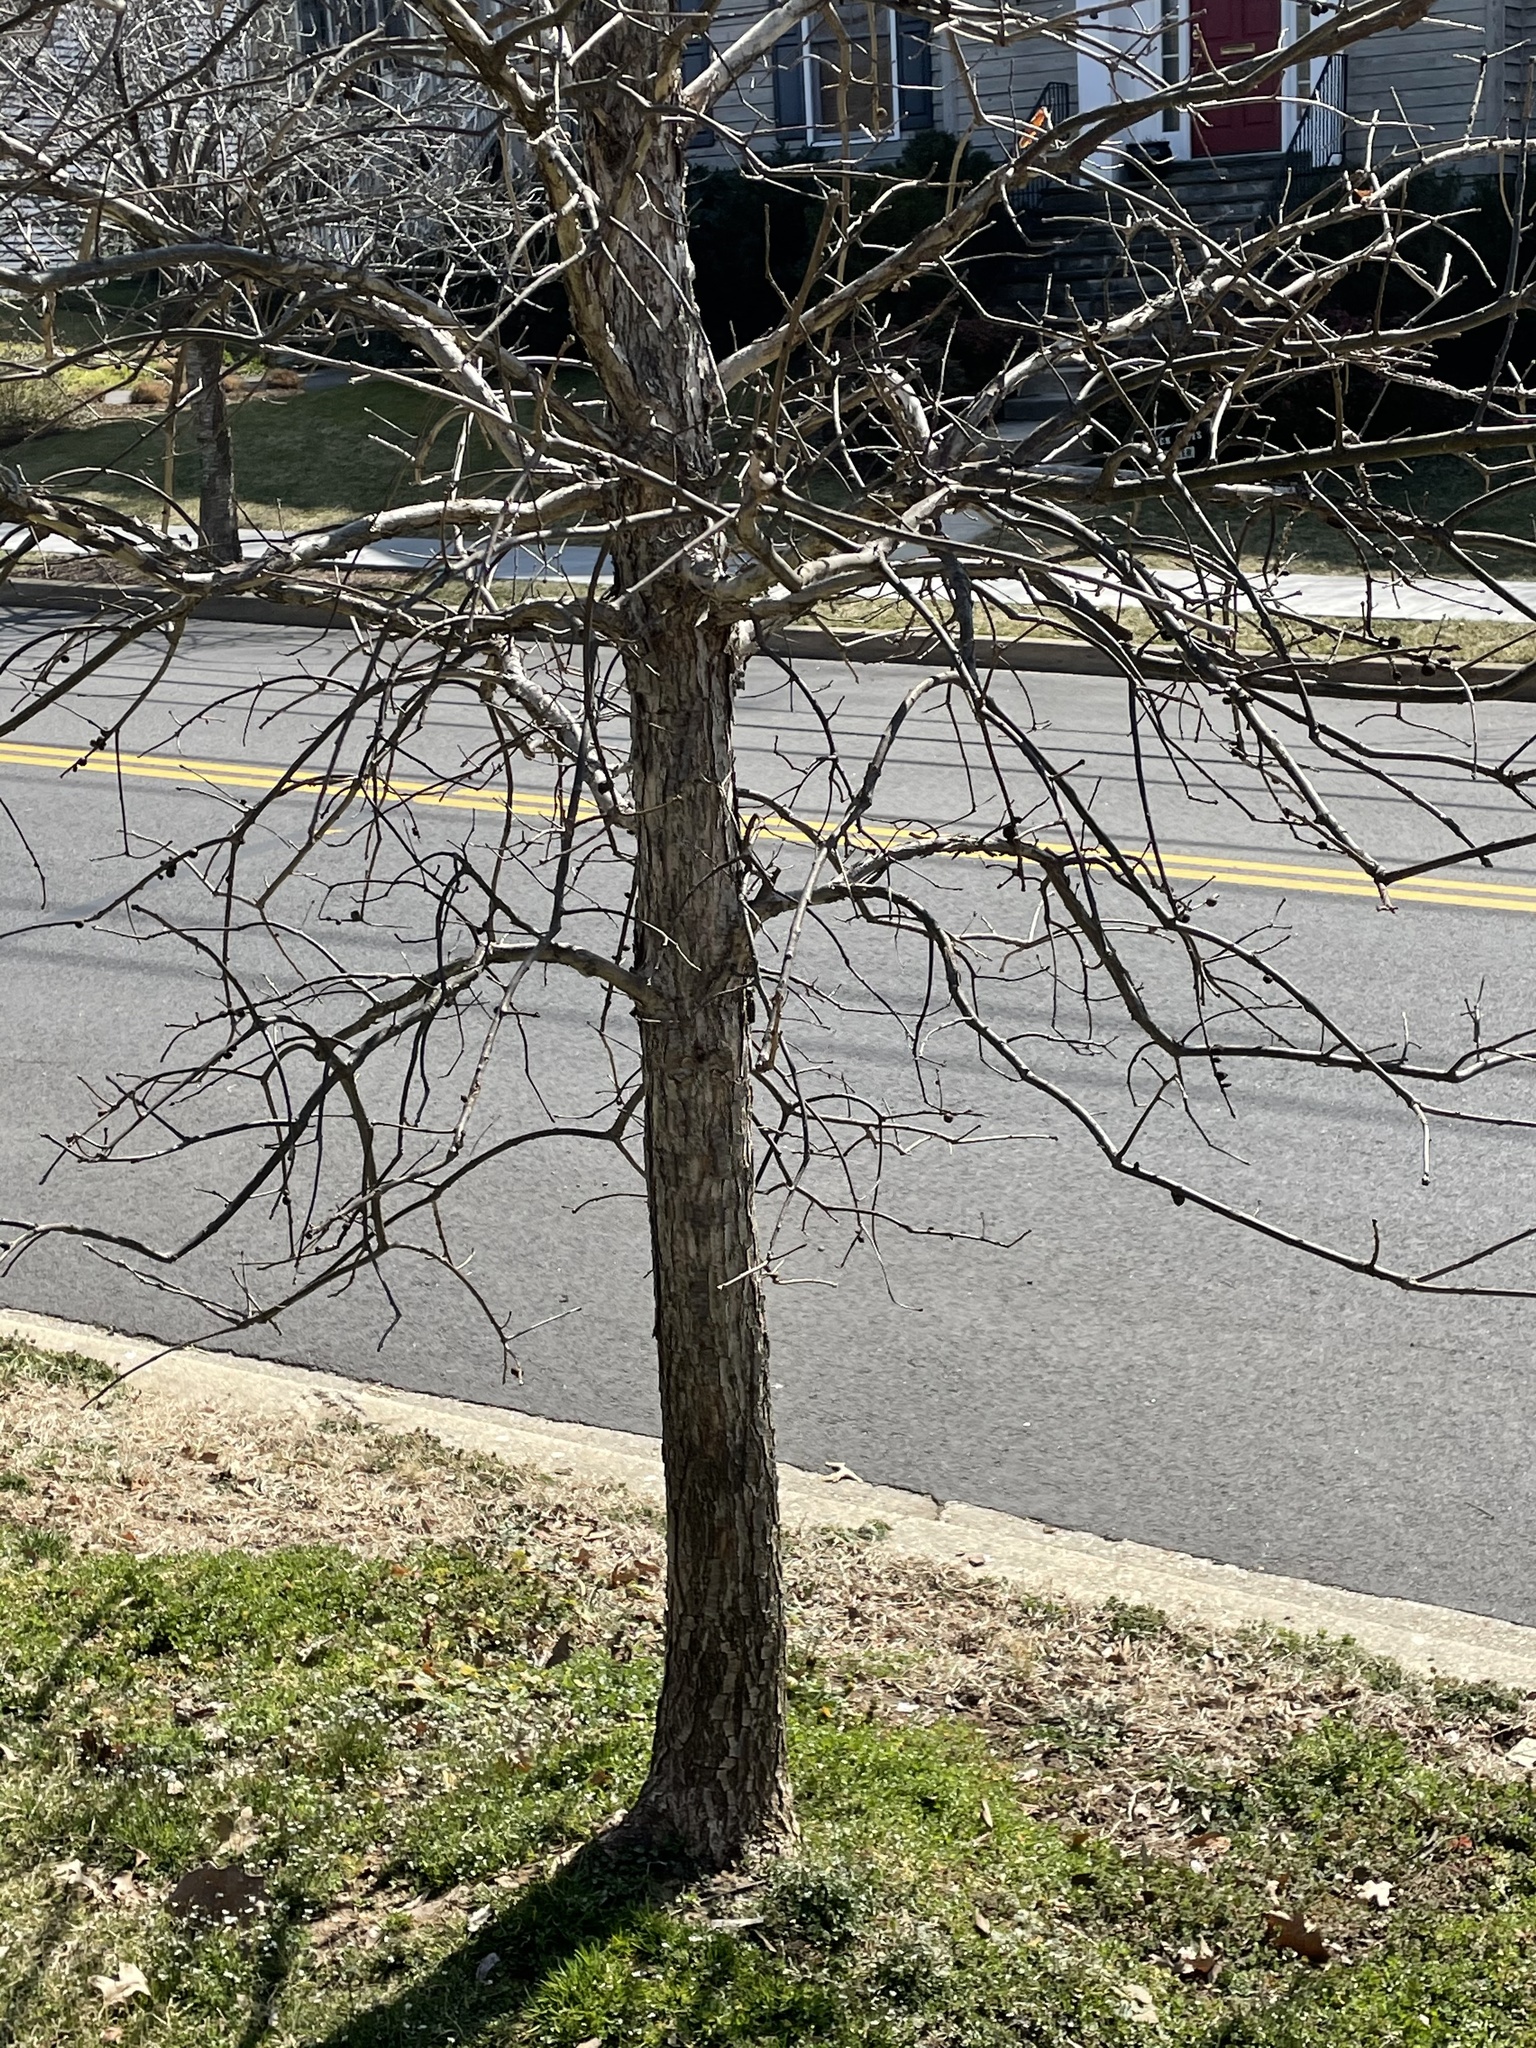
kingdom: Animalia
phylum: Arthropoda
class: Insecta
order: Hymenoptera
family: Cynipidae
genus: Disholcaspis
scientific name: Disholcaspis
